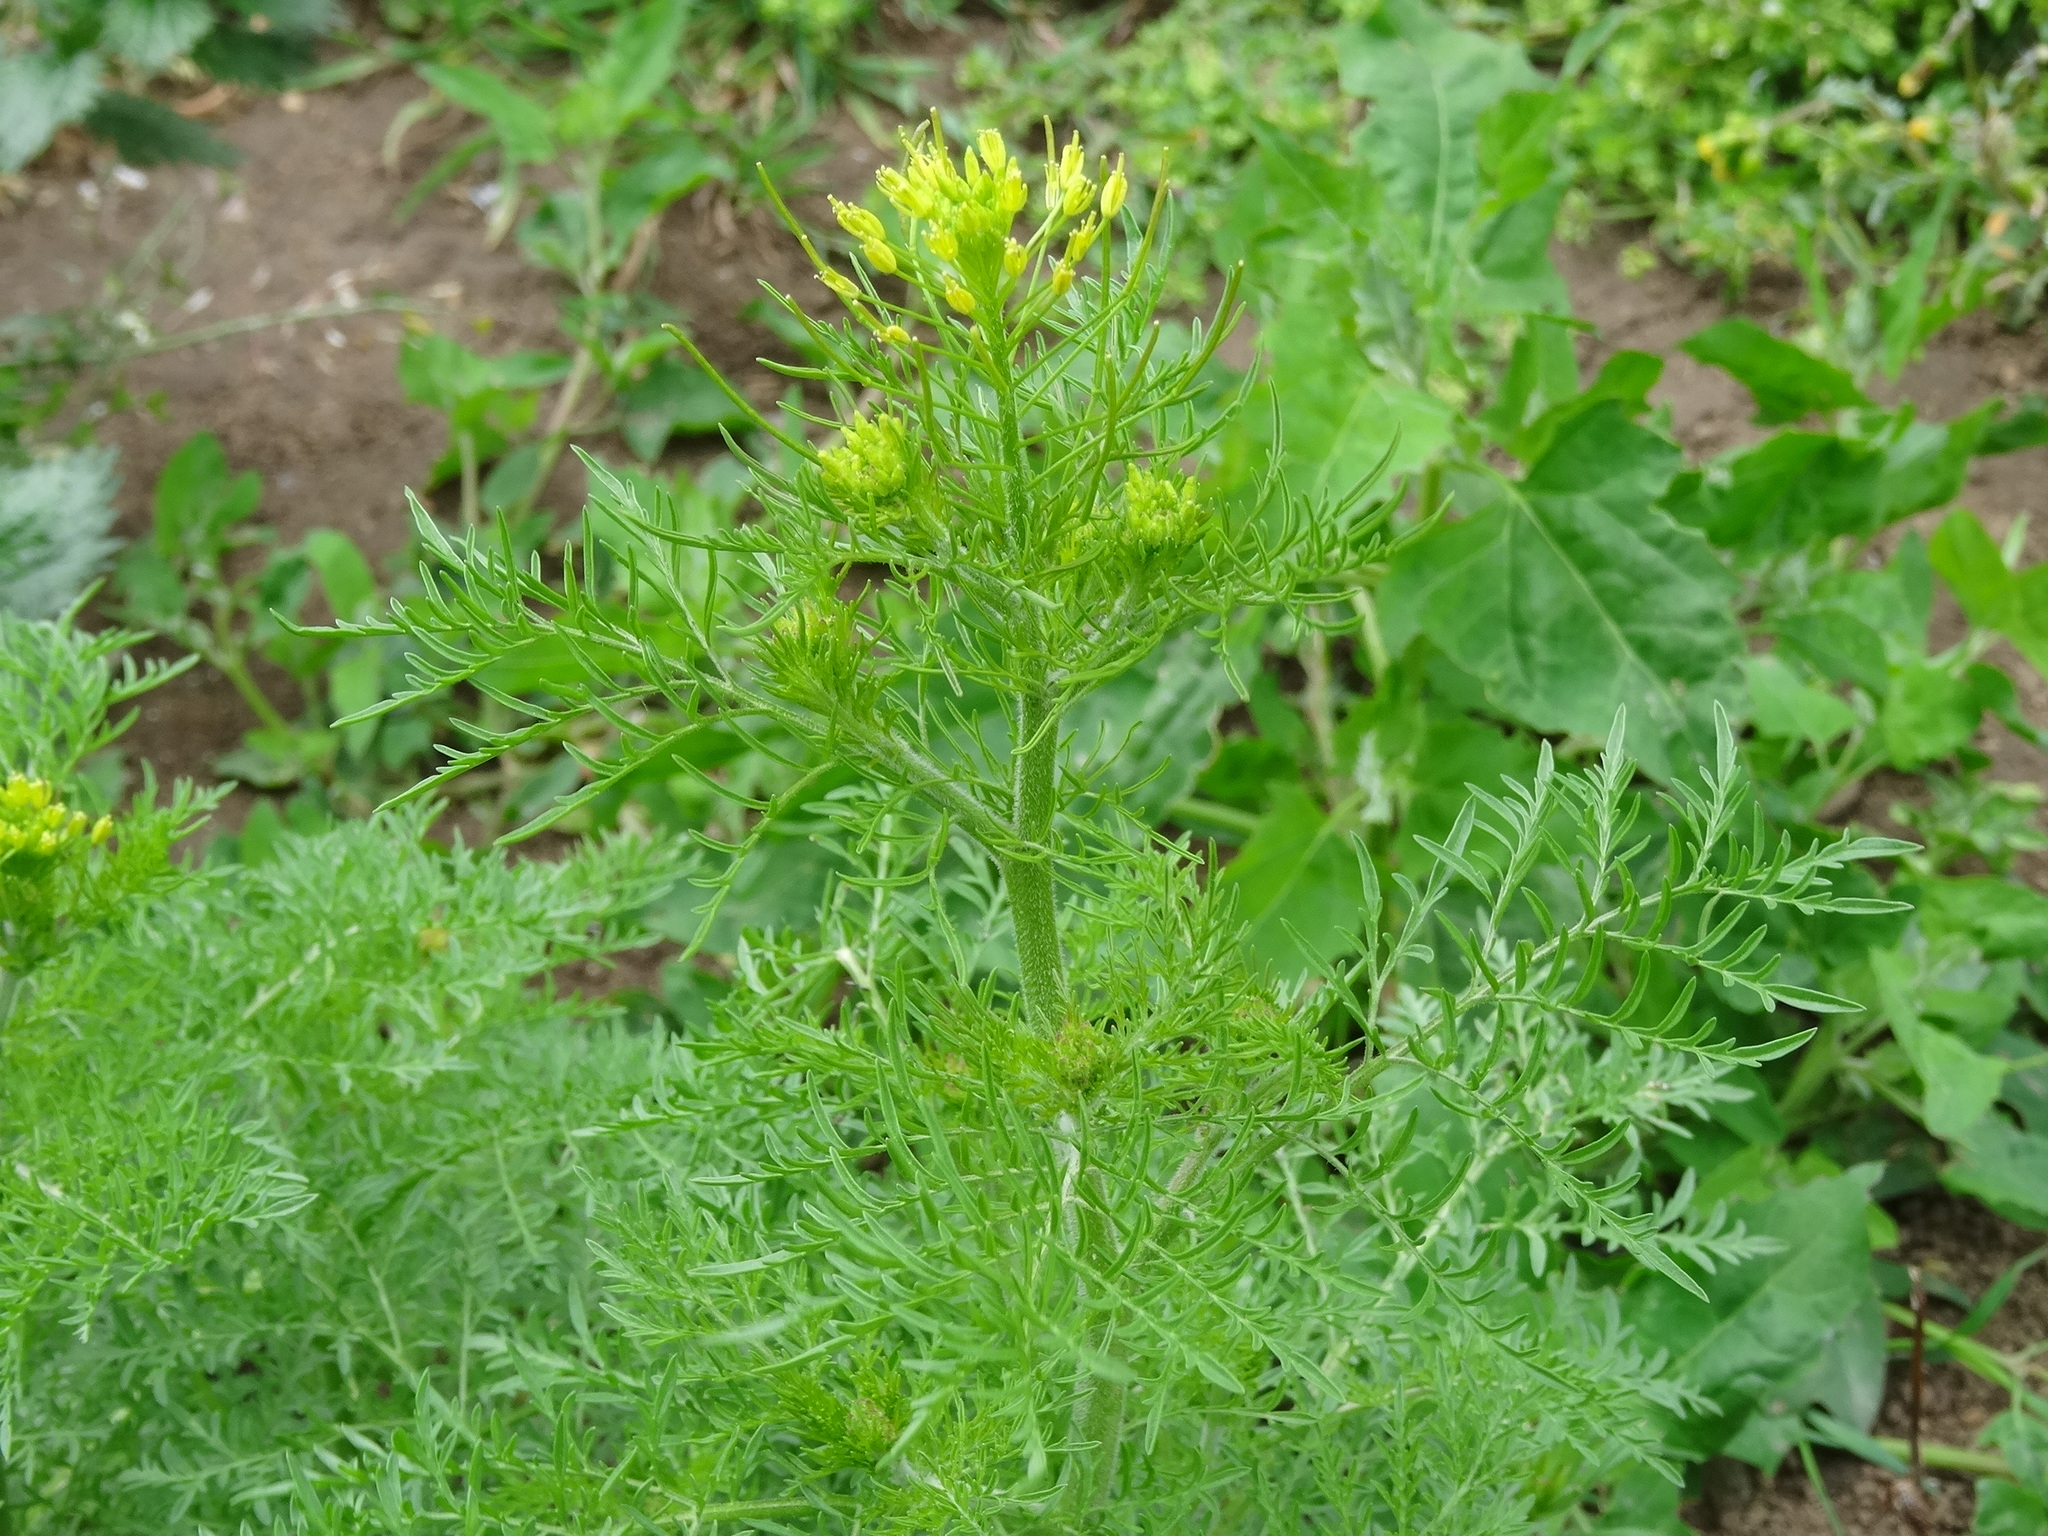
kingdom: Plantae
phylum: Tracheophyta
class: Magnoliopsida
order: Brassicales
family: Brassicaceae
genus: Descurainia
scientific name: Descurainia sophia
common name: Flixweed
